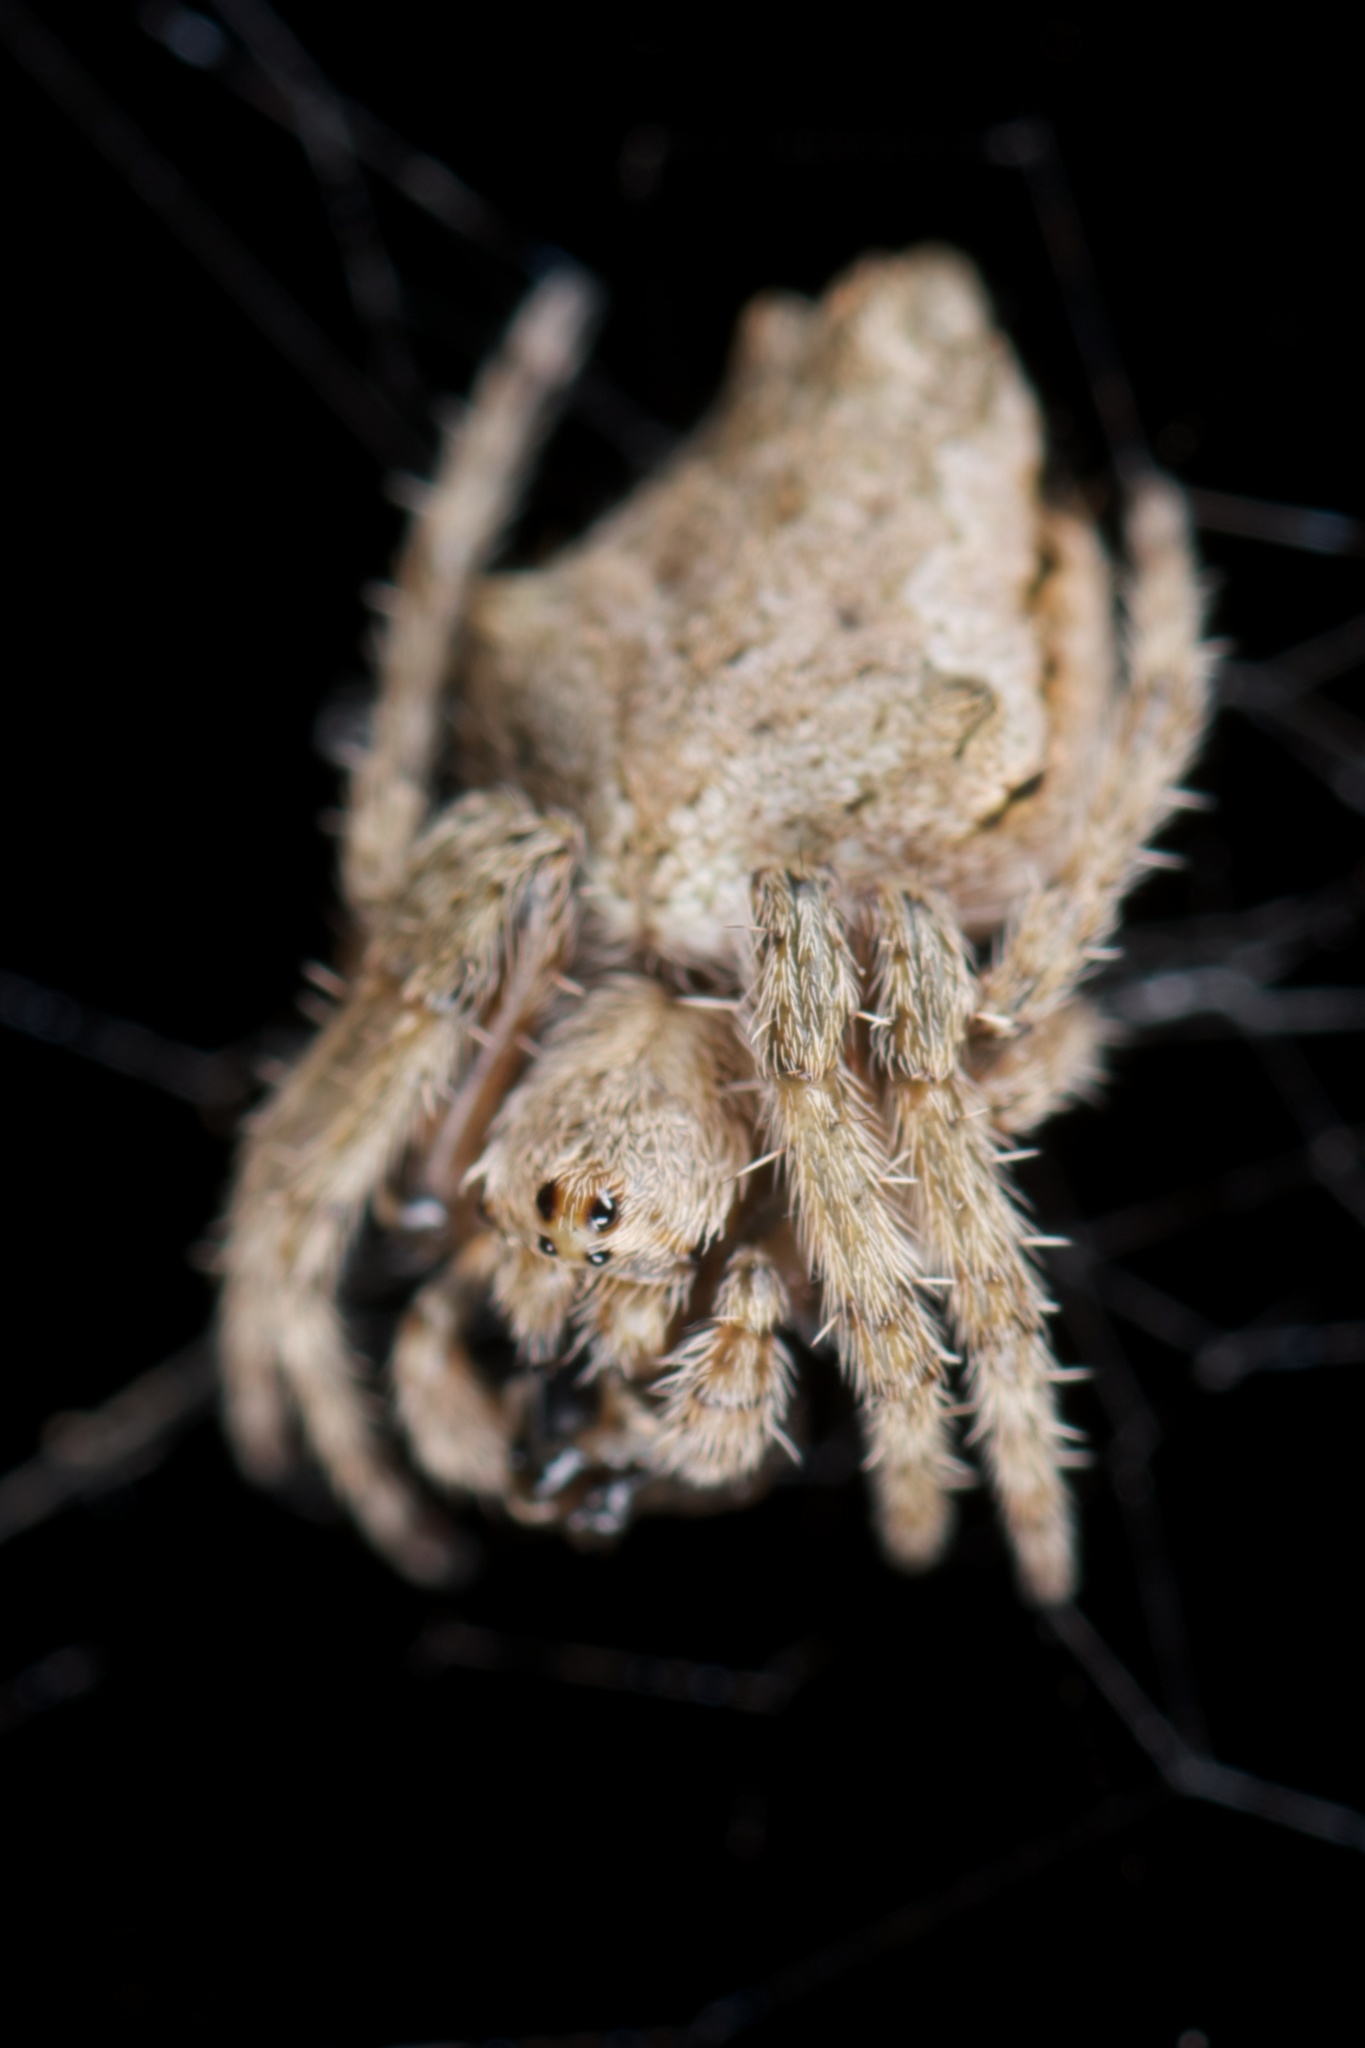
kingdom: Animalia
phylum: Arthropoda
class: Arachnida
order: Araneae
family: Araneidae
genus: Eriophora
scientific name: Eriophora pustulosa
